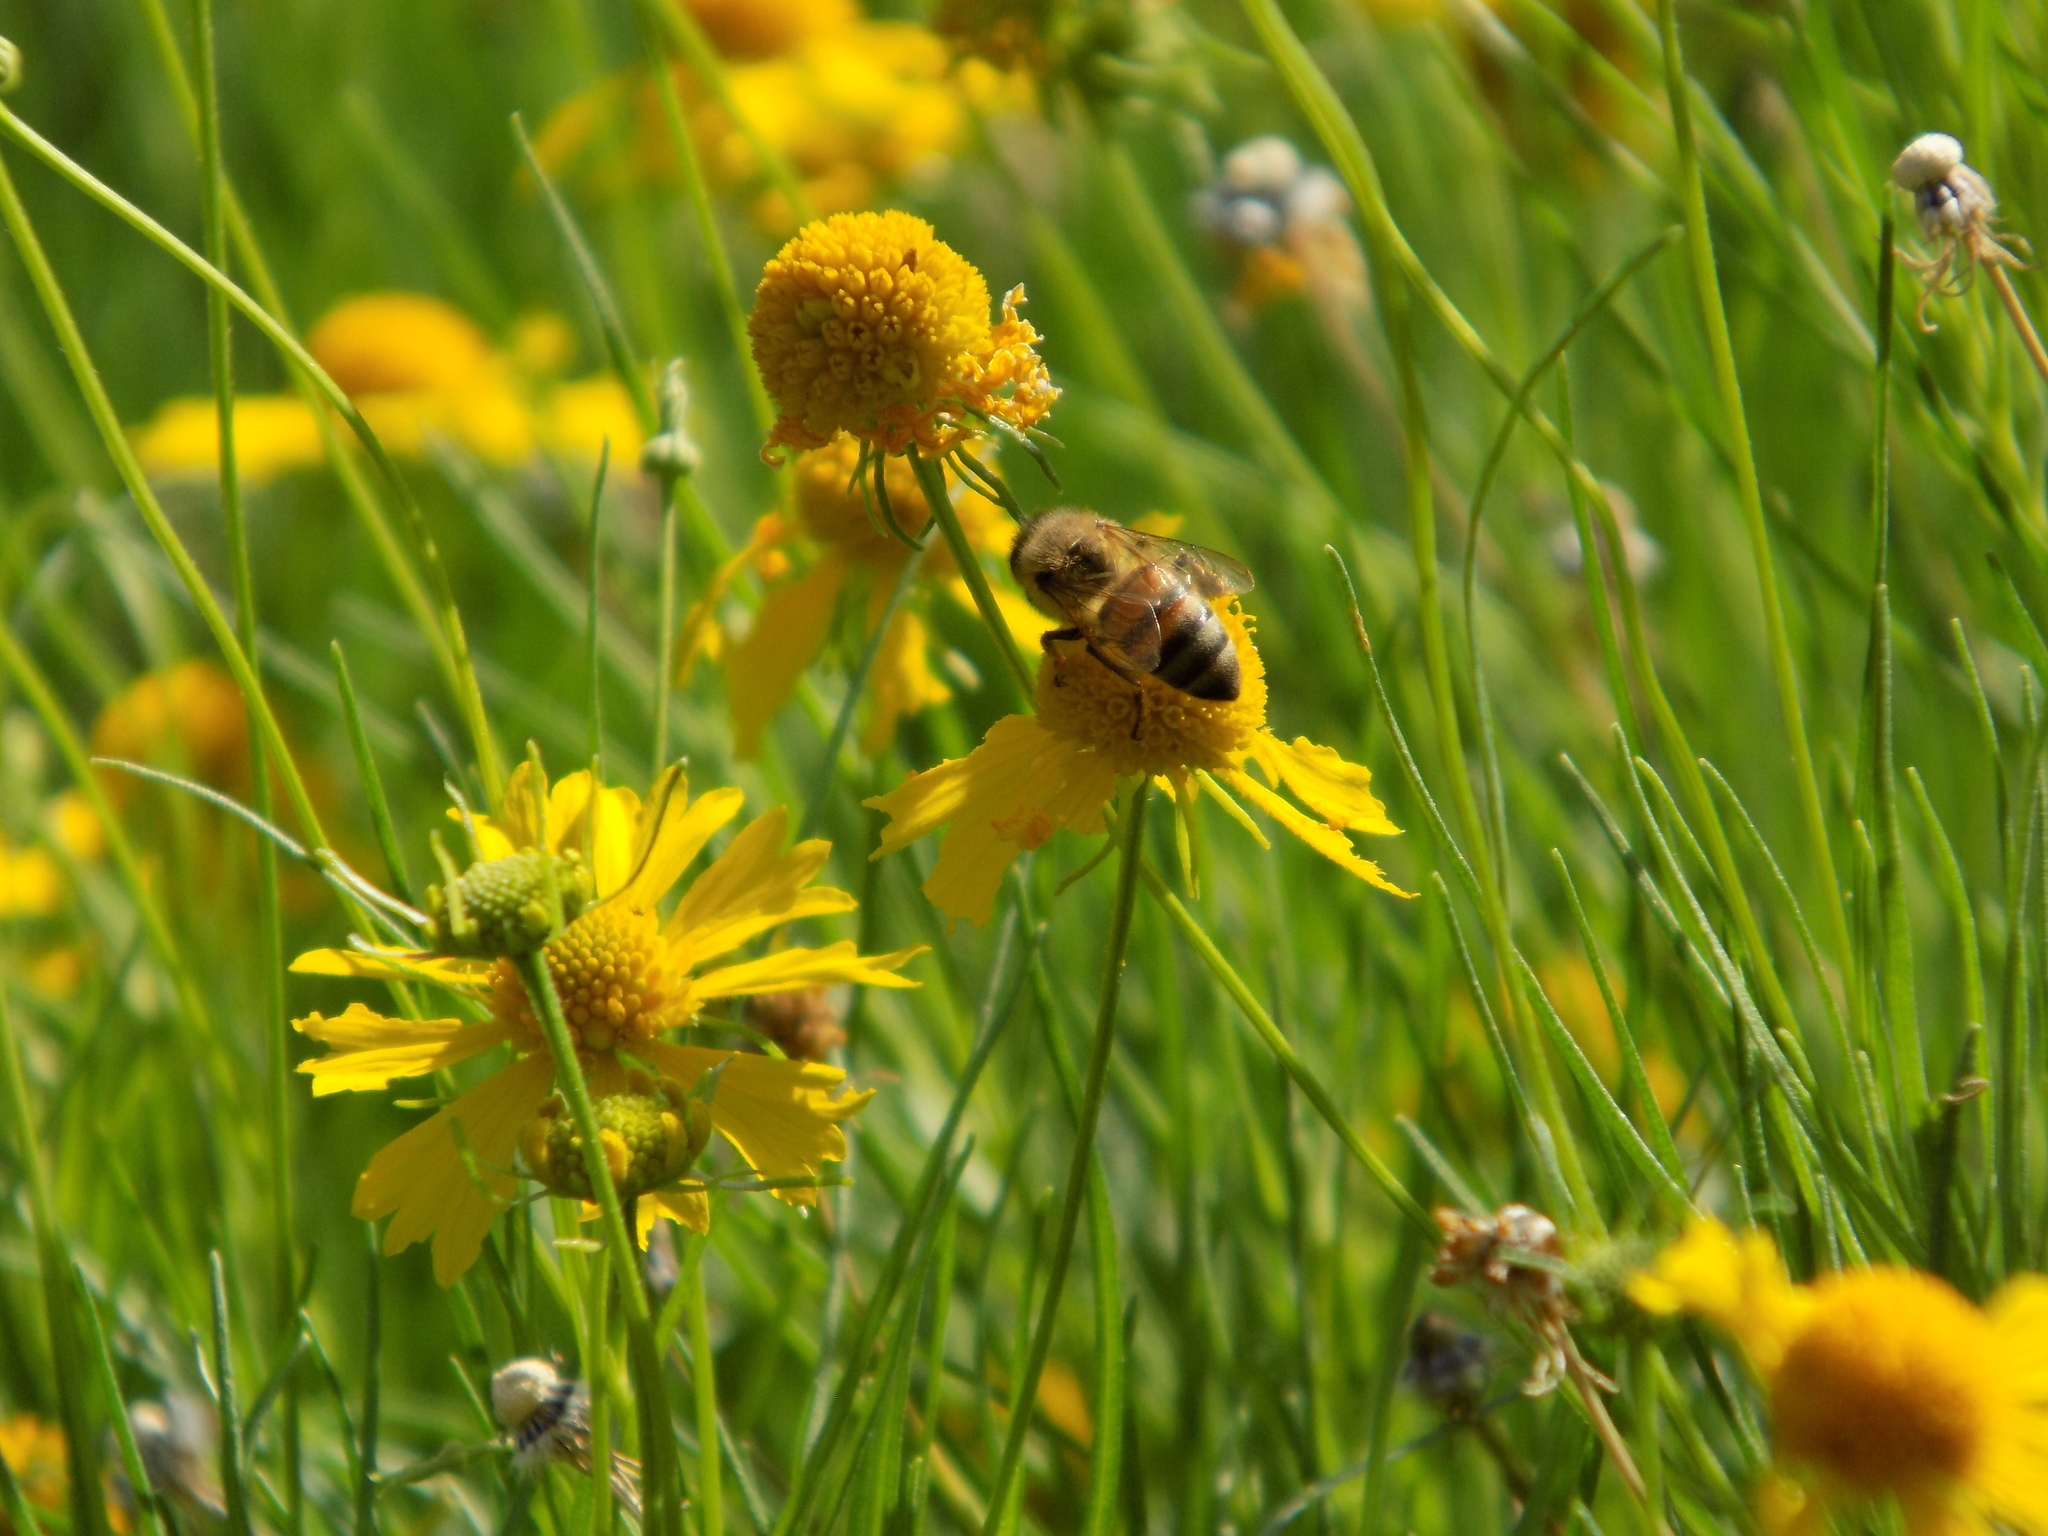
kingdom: Animalia
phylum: Arthropoda
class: Insecta
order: Hymenoptera
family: Apidae
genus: Apis
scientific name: Apis mellifera
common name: Honey bee
